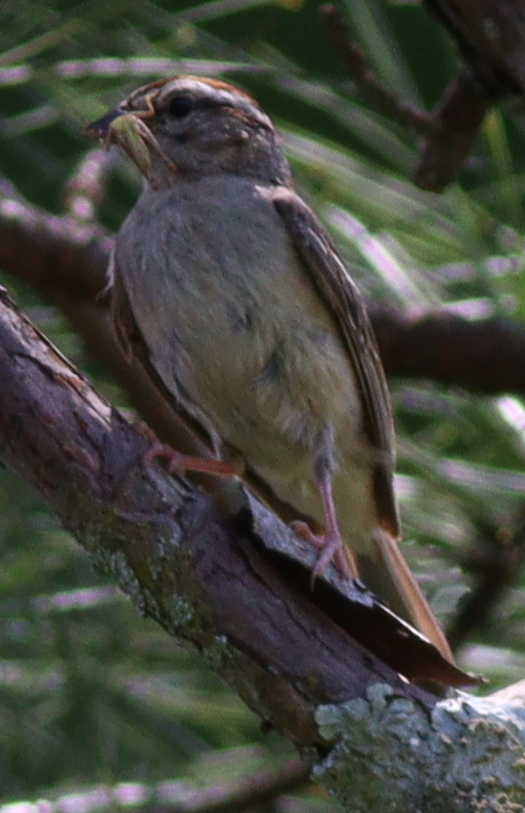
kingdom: Animalia
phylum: Chordata
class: Aves
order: Passeriformes
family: Passerellidae
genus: Spizella
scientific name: Spizella passerina
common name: Chipping sparrow
